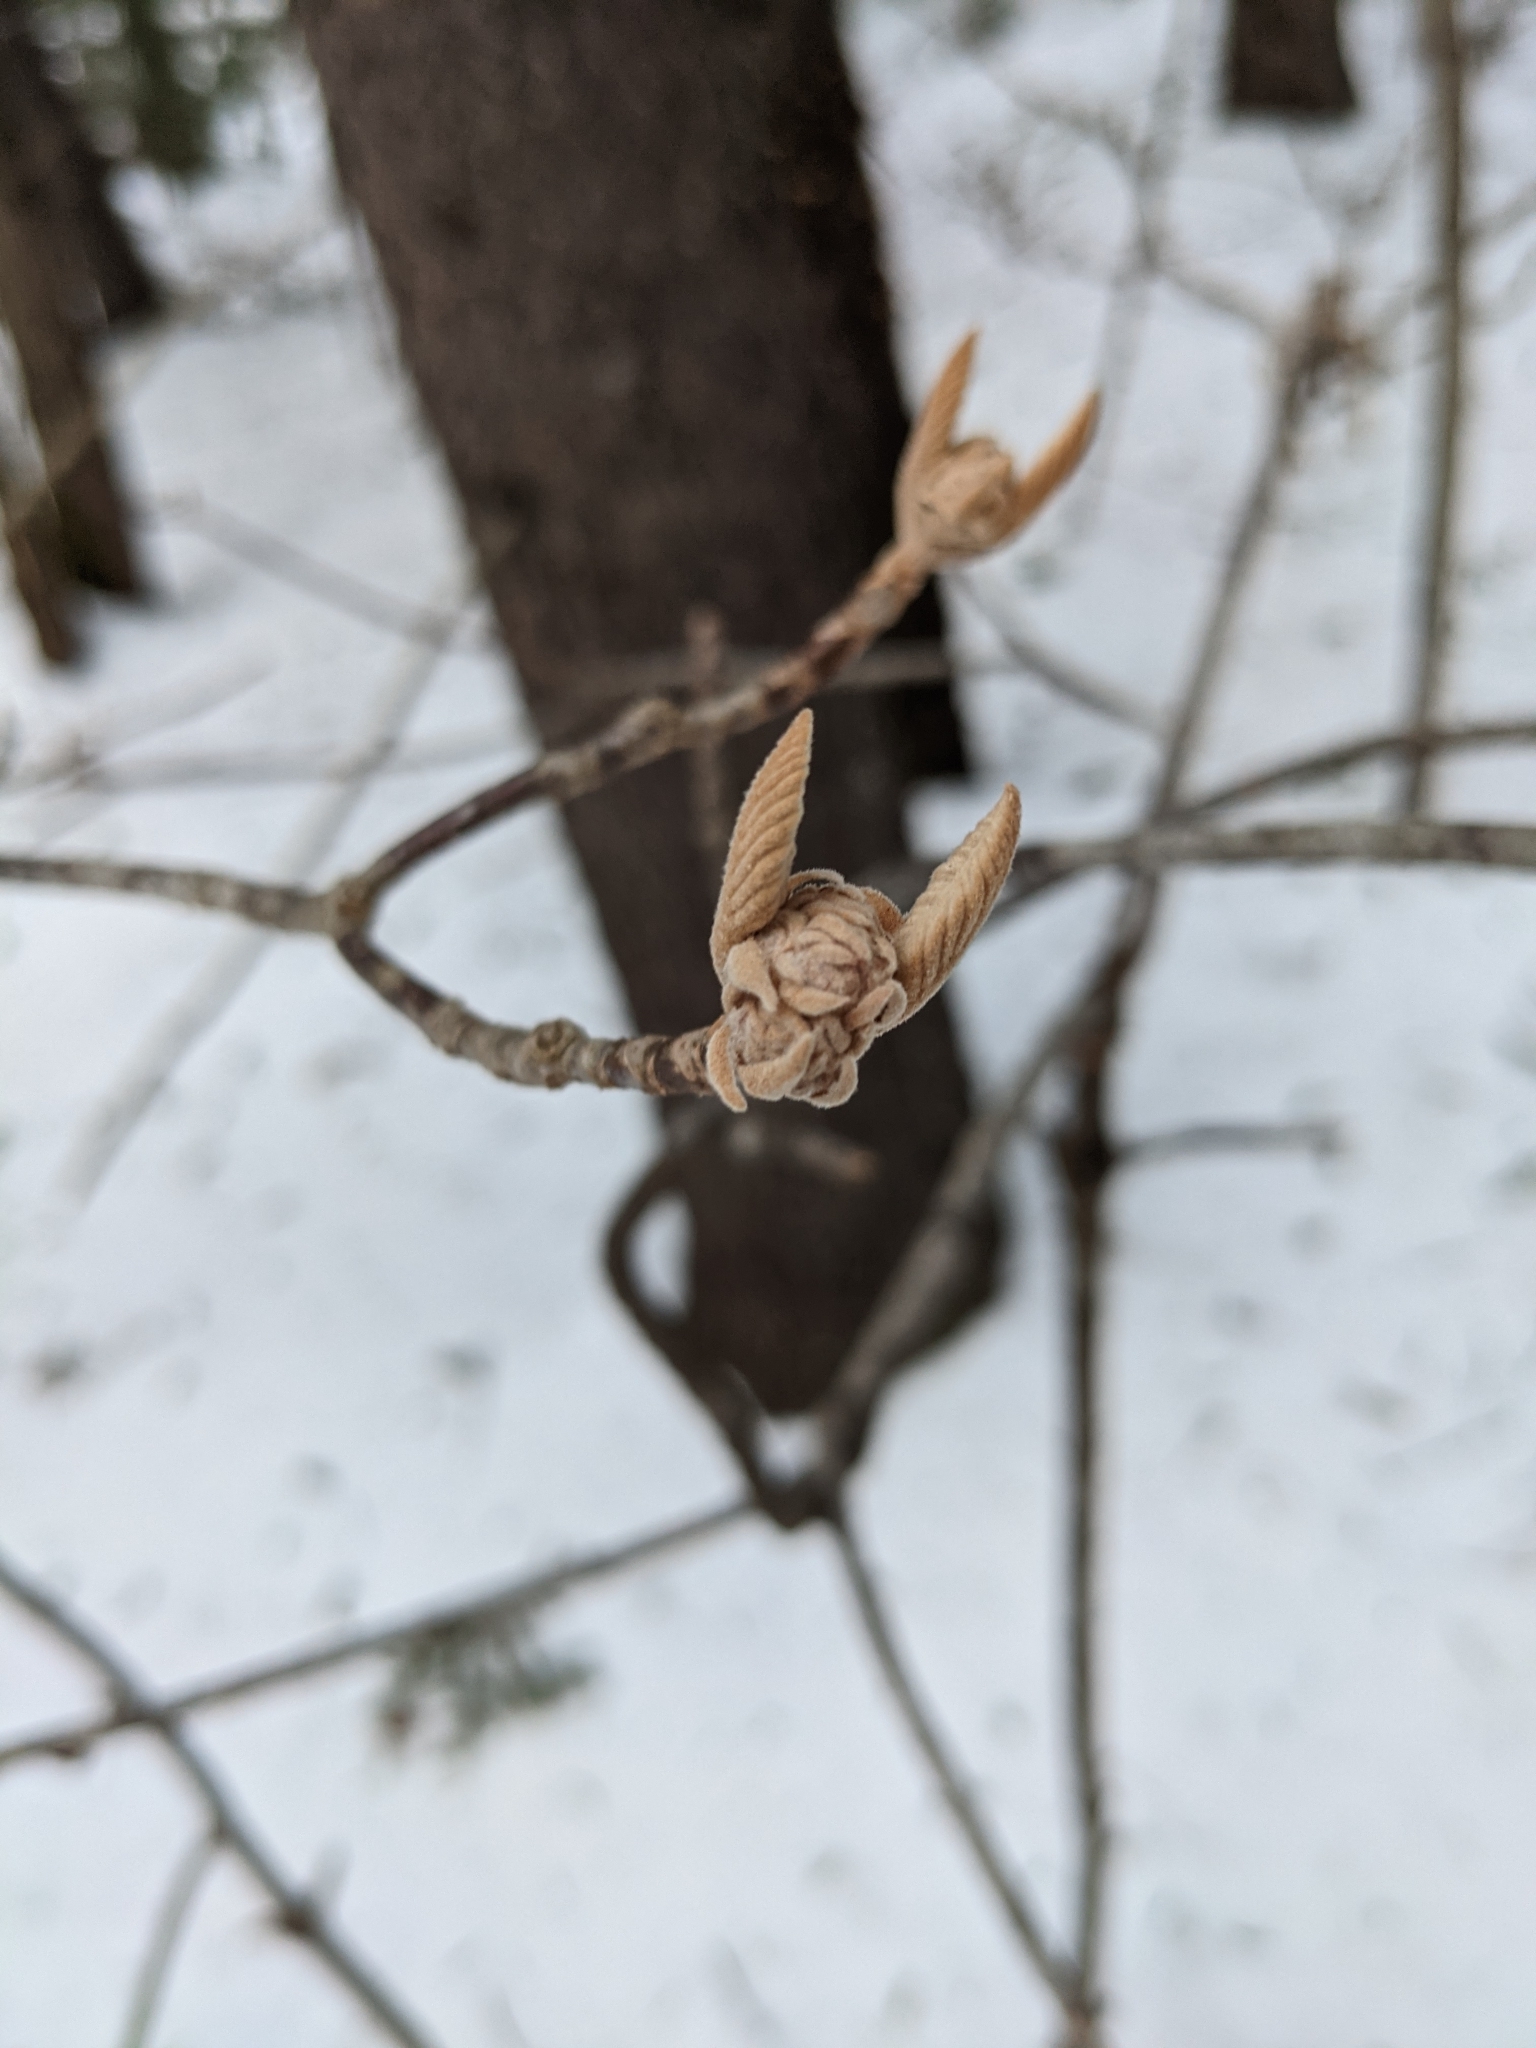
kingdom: Plantae
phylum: Tracheophyta
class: Magnoliopsida
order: Dipsacales
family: Viburnaceae
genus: Viburnum
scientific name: Viburnum lantanoides
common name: Hobblebush
